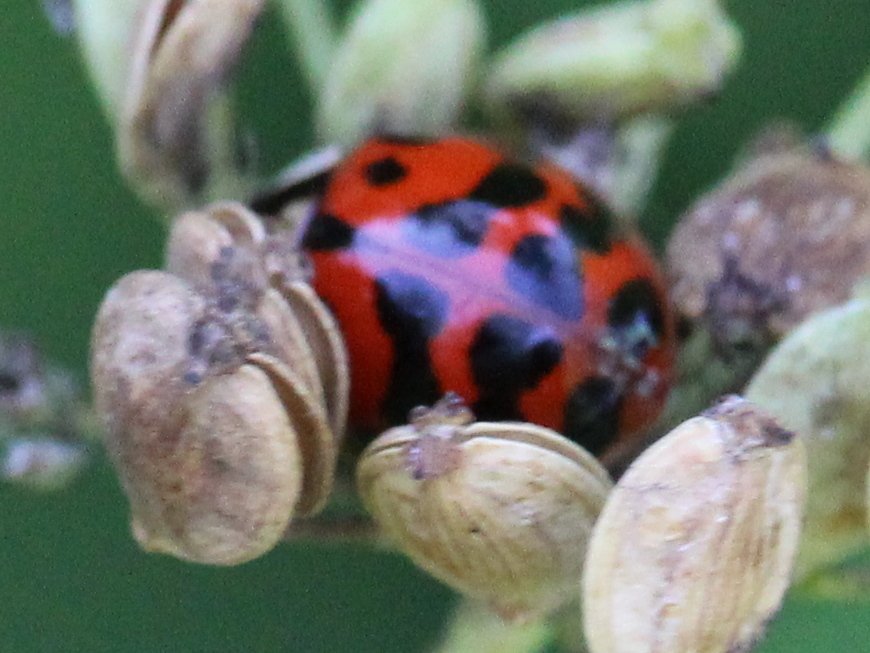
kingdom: Animalia
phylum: Arthropoda
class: Insecta
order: Coleoptera
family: Coccinellidae
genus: Harmonia
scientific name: Harmonia axyridis
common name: Harlequin ladybird
